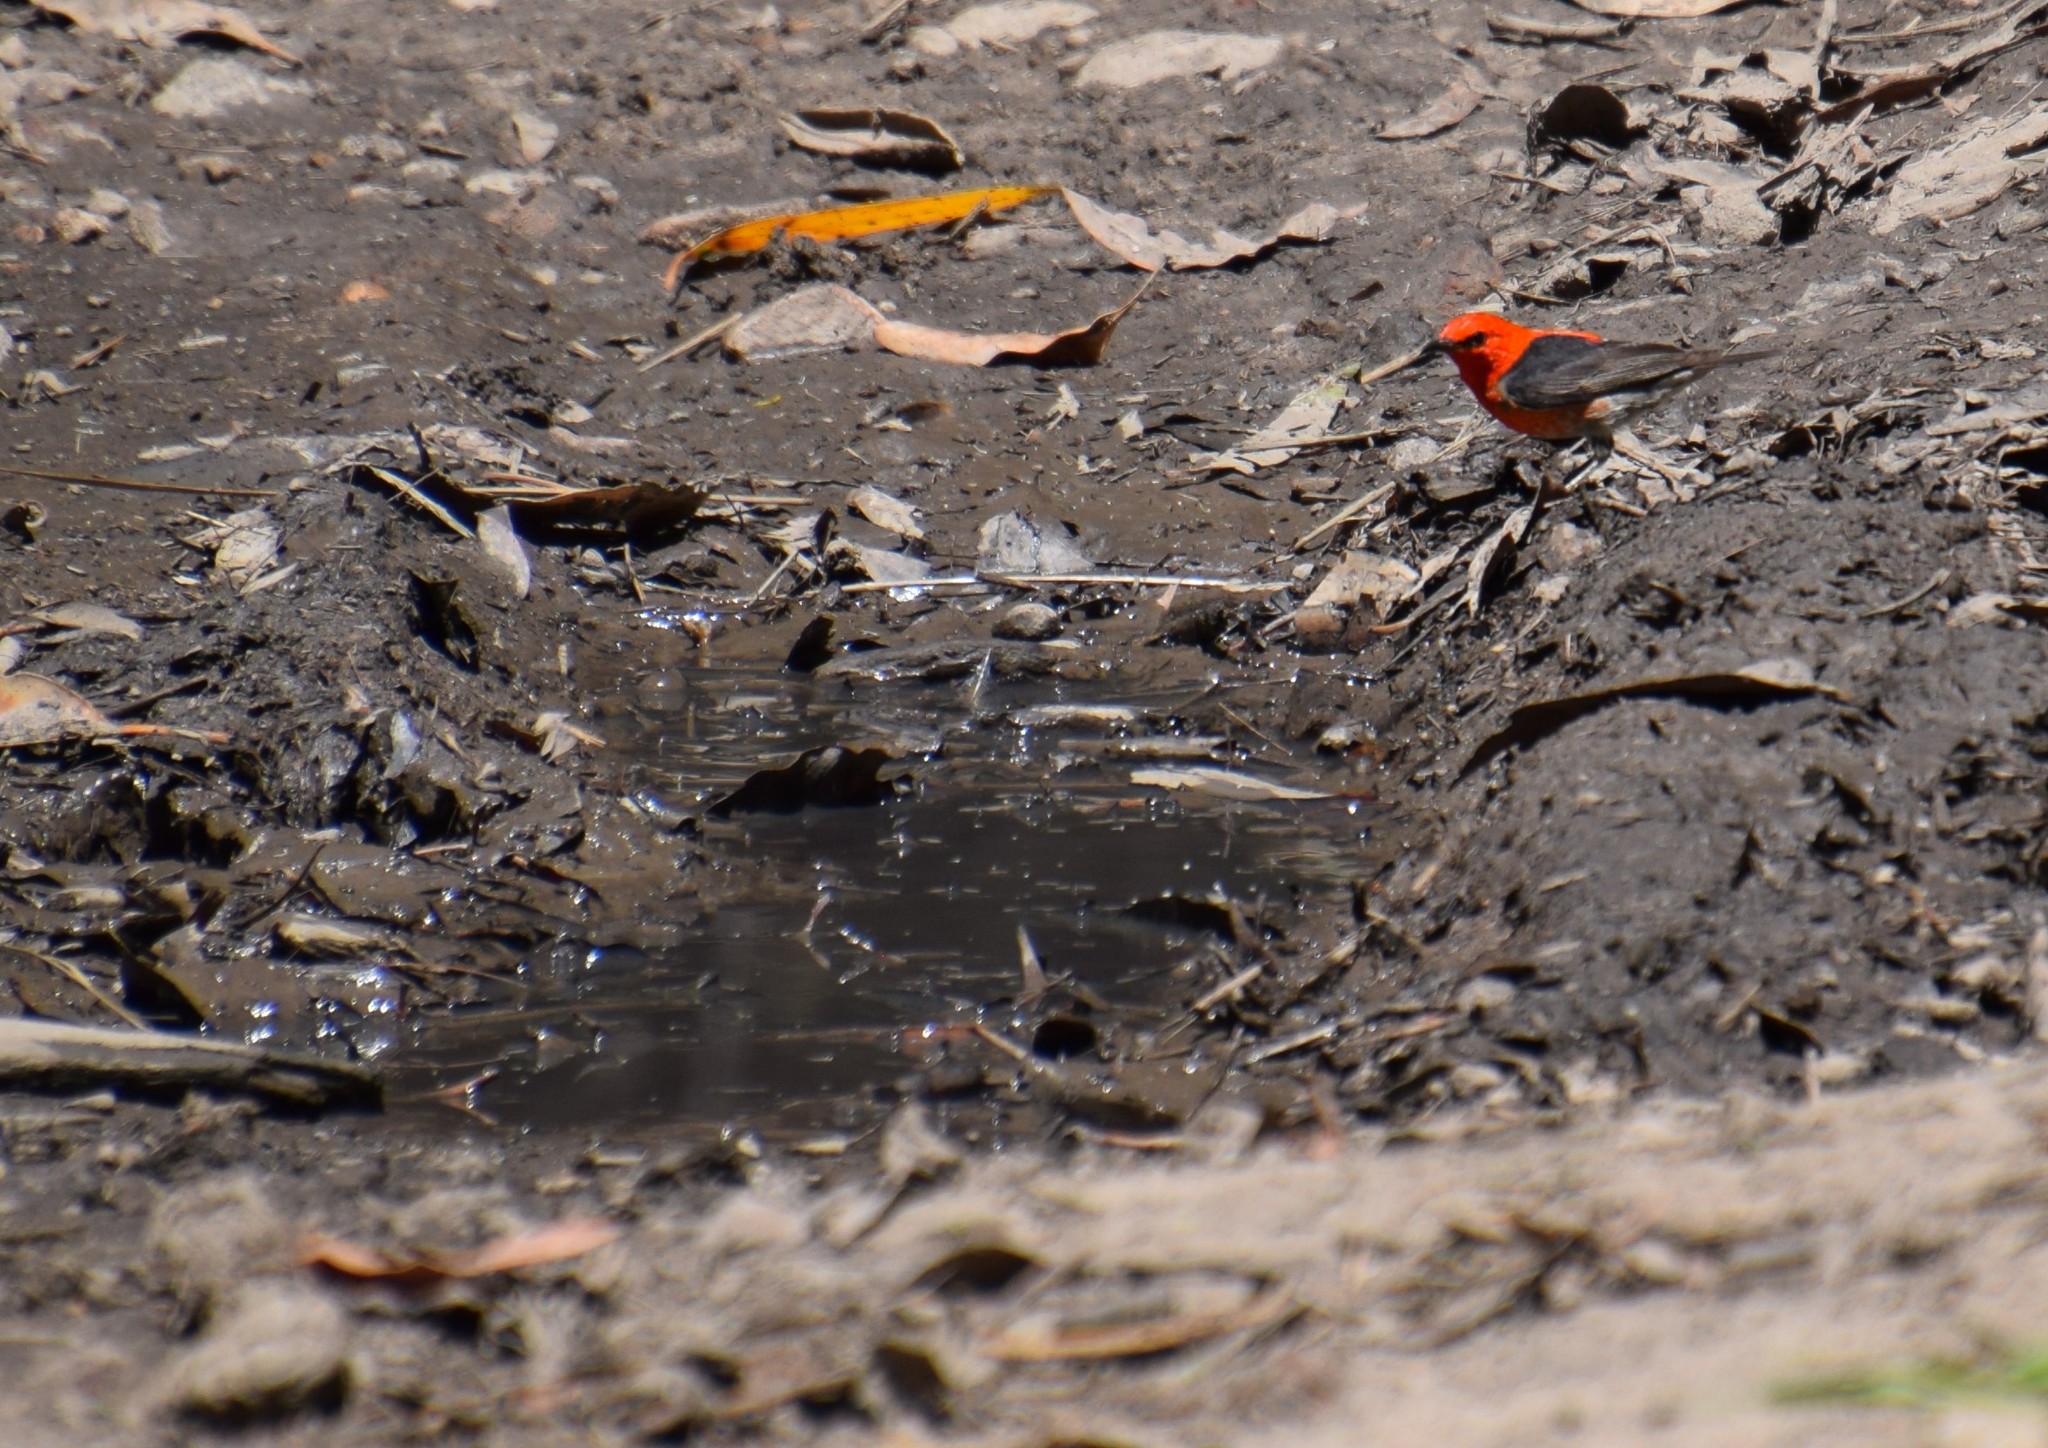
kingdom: Animalia
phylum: Chordata
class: Aves
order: Passeriformes
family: Meliphagidae
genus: Myzomela
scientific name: Myzomela sanguinolenta
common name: Scarlet myzomela
